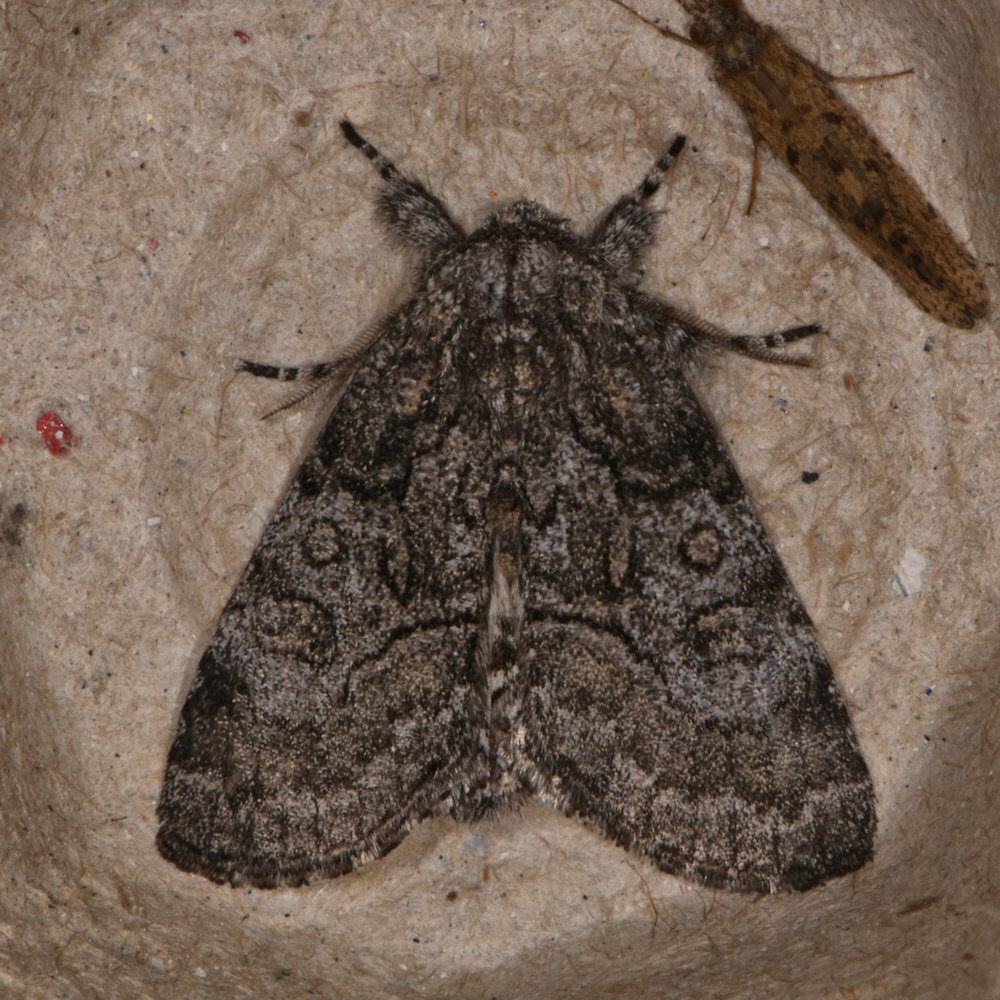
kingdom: Animalia
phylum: Arthropoda
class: Insecta
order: Lepidoptera
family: Noctuidae
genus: Raphia
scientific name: Raphia frater
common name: Brother
